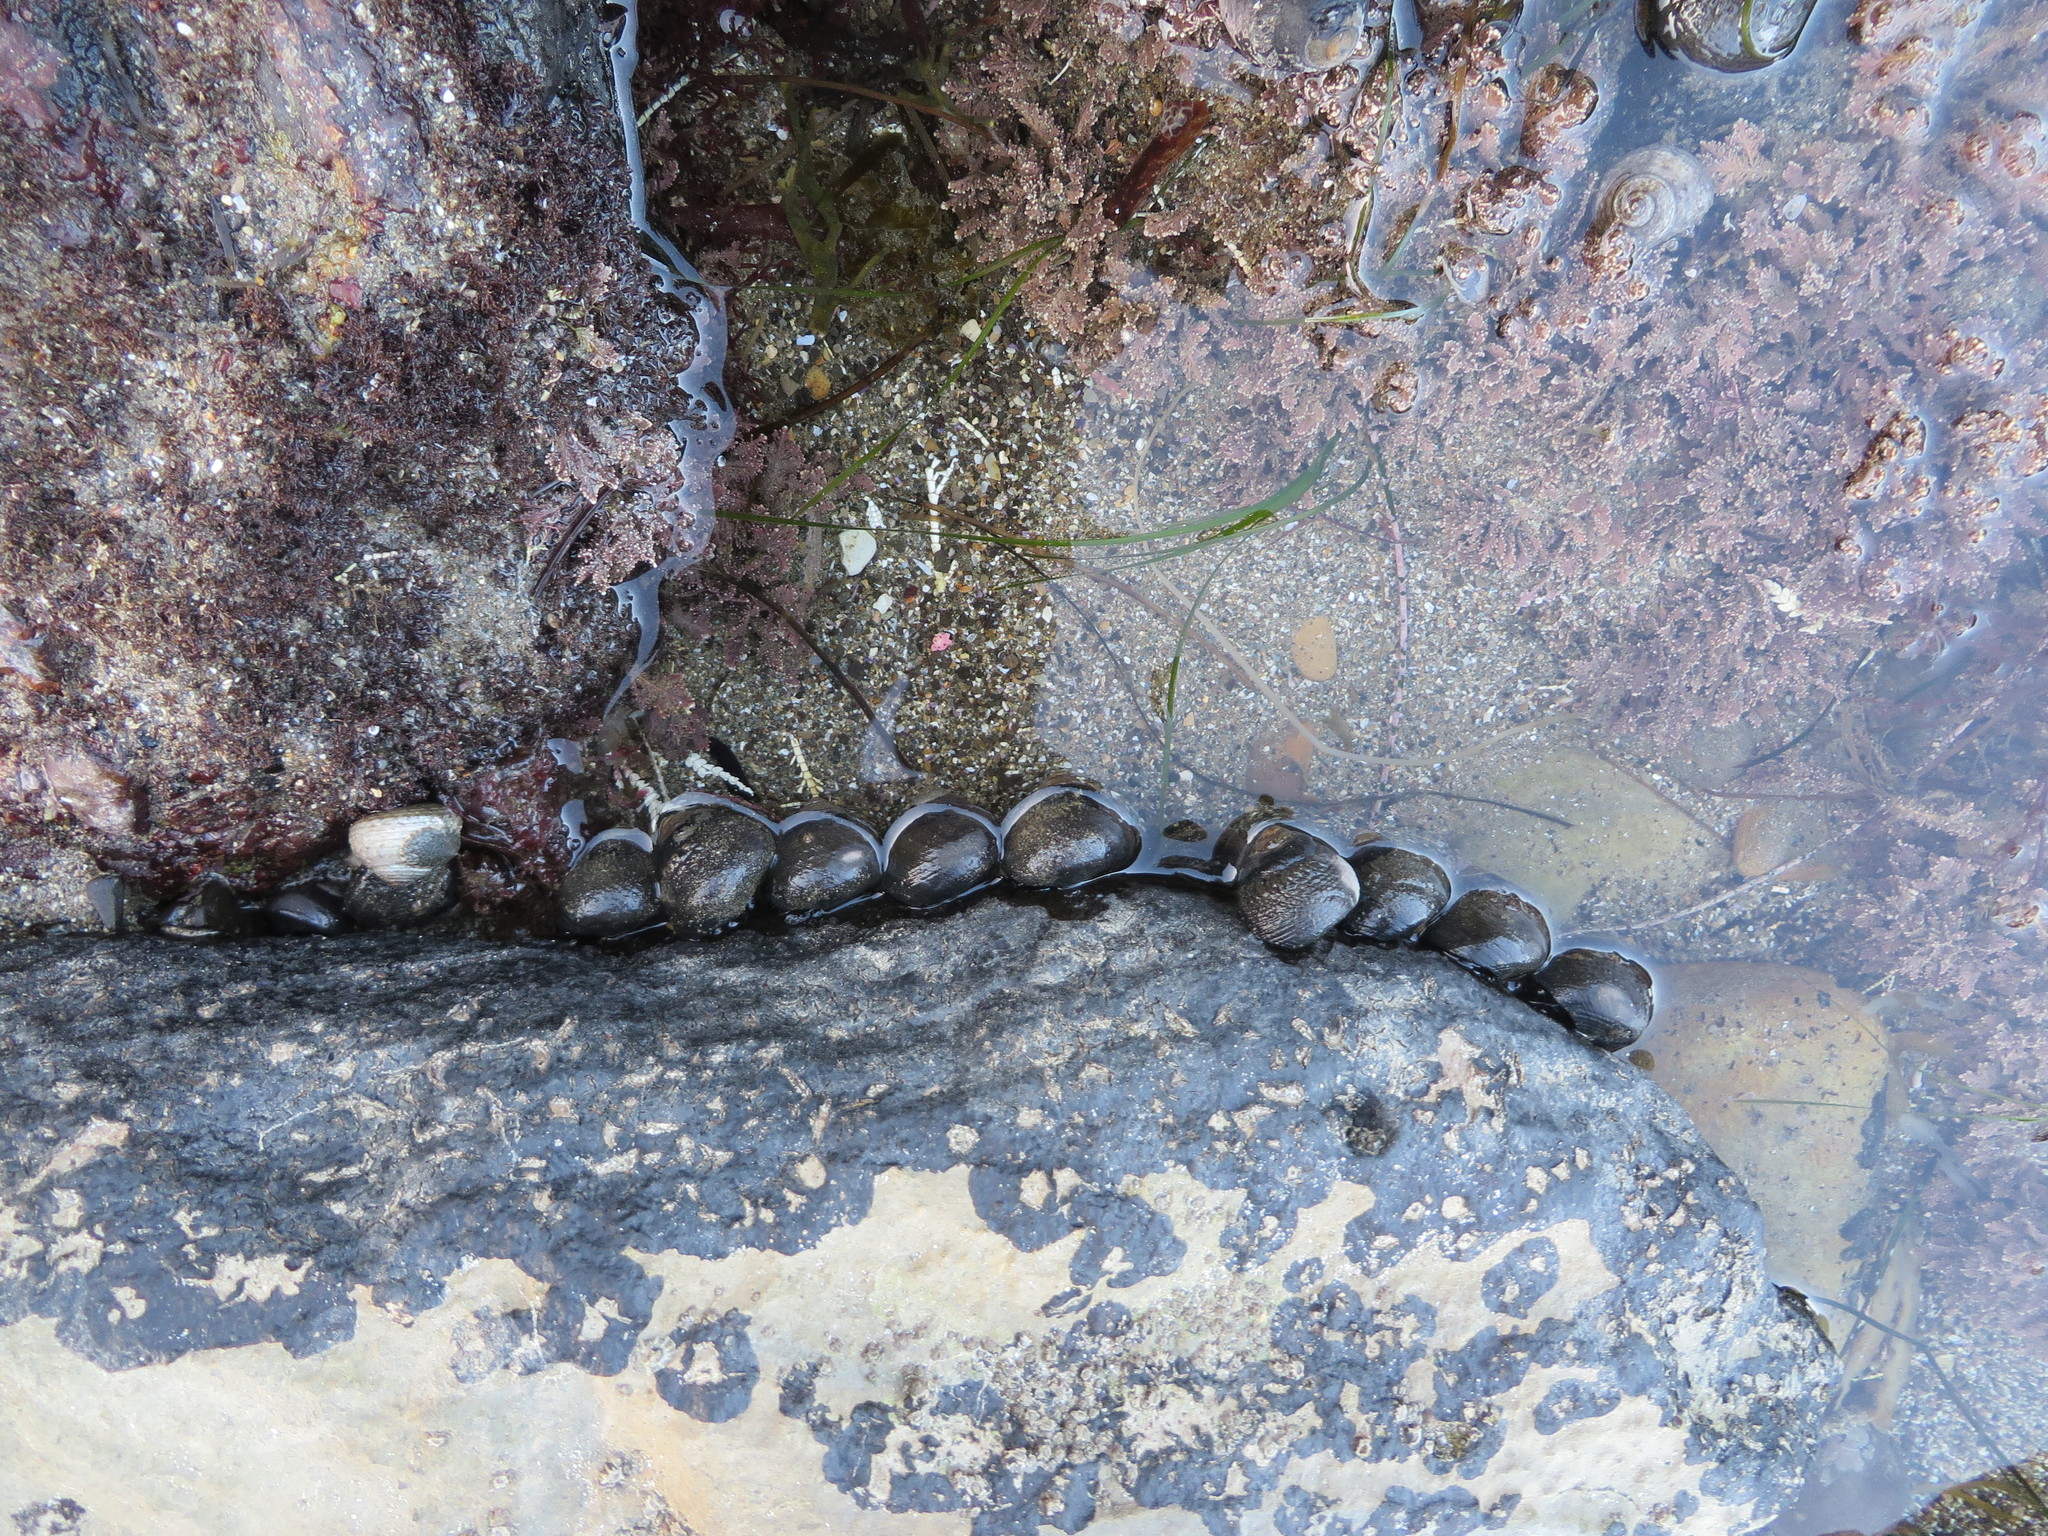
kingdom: Animalia
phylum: Mollusca
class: Gastropoda
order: Trochida
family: Tegulidae
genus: Tegula
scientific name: Tegula funebralis
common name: Black tegula
